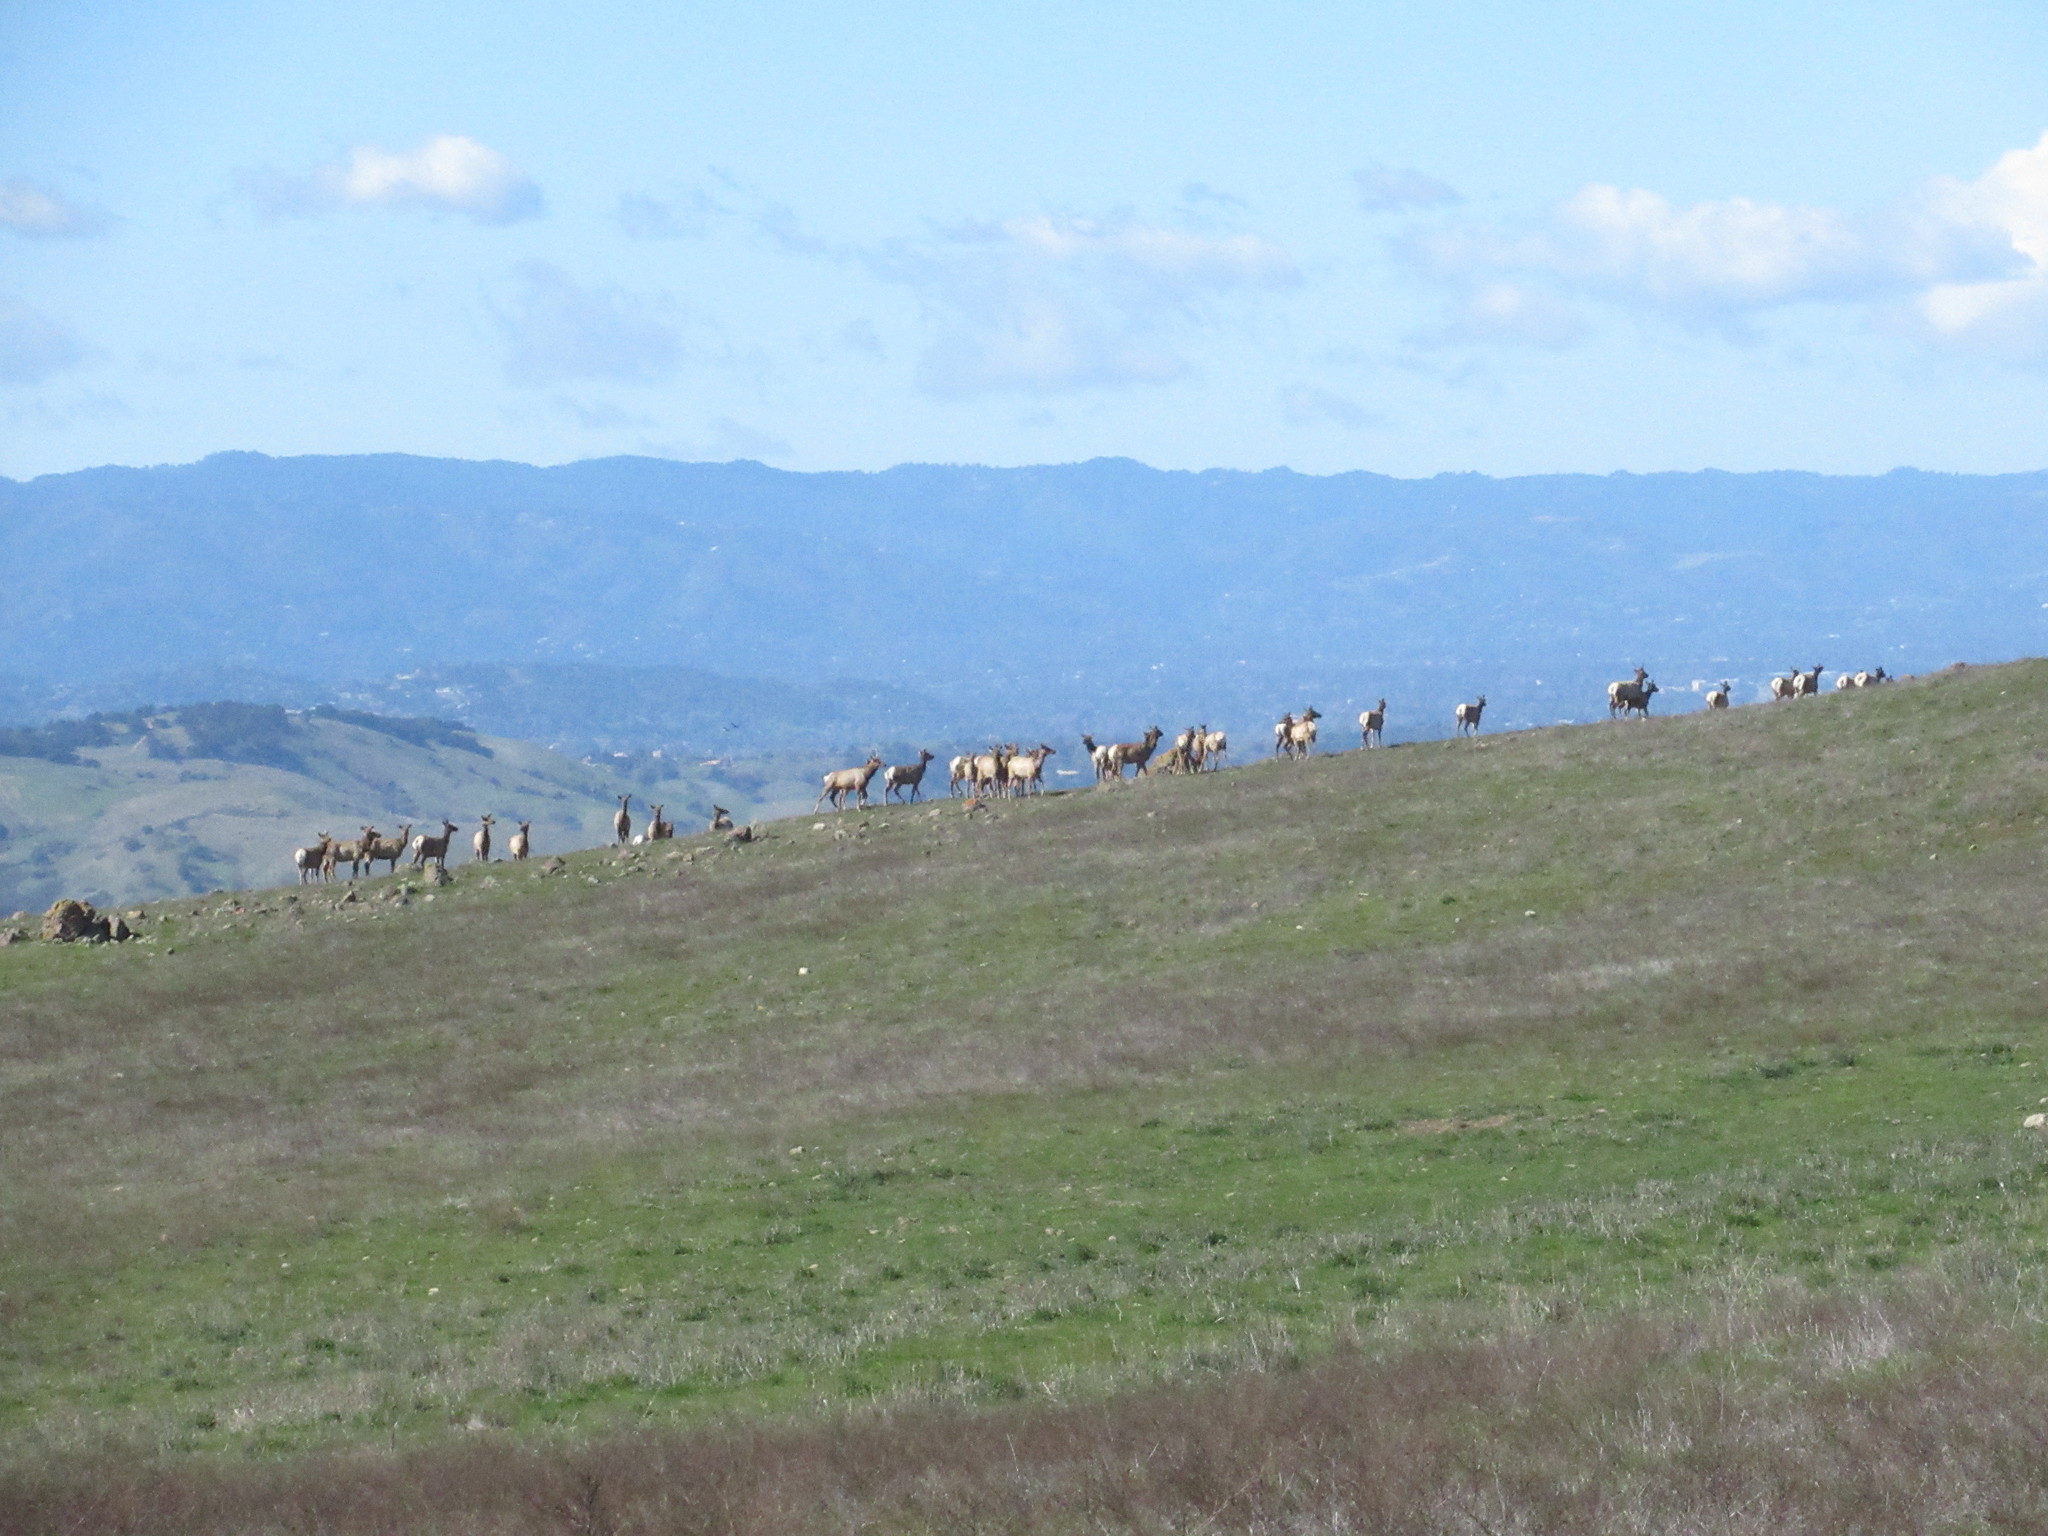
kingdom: Animalia
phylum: Chordata
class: Mammalia
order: Artiodactyla
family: Cervidae
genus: Cervus
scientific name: Cervus elaphus
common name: Red deer
